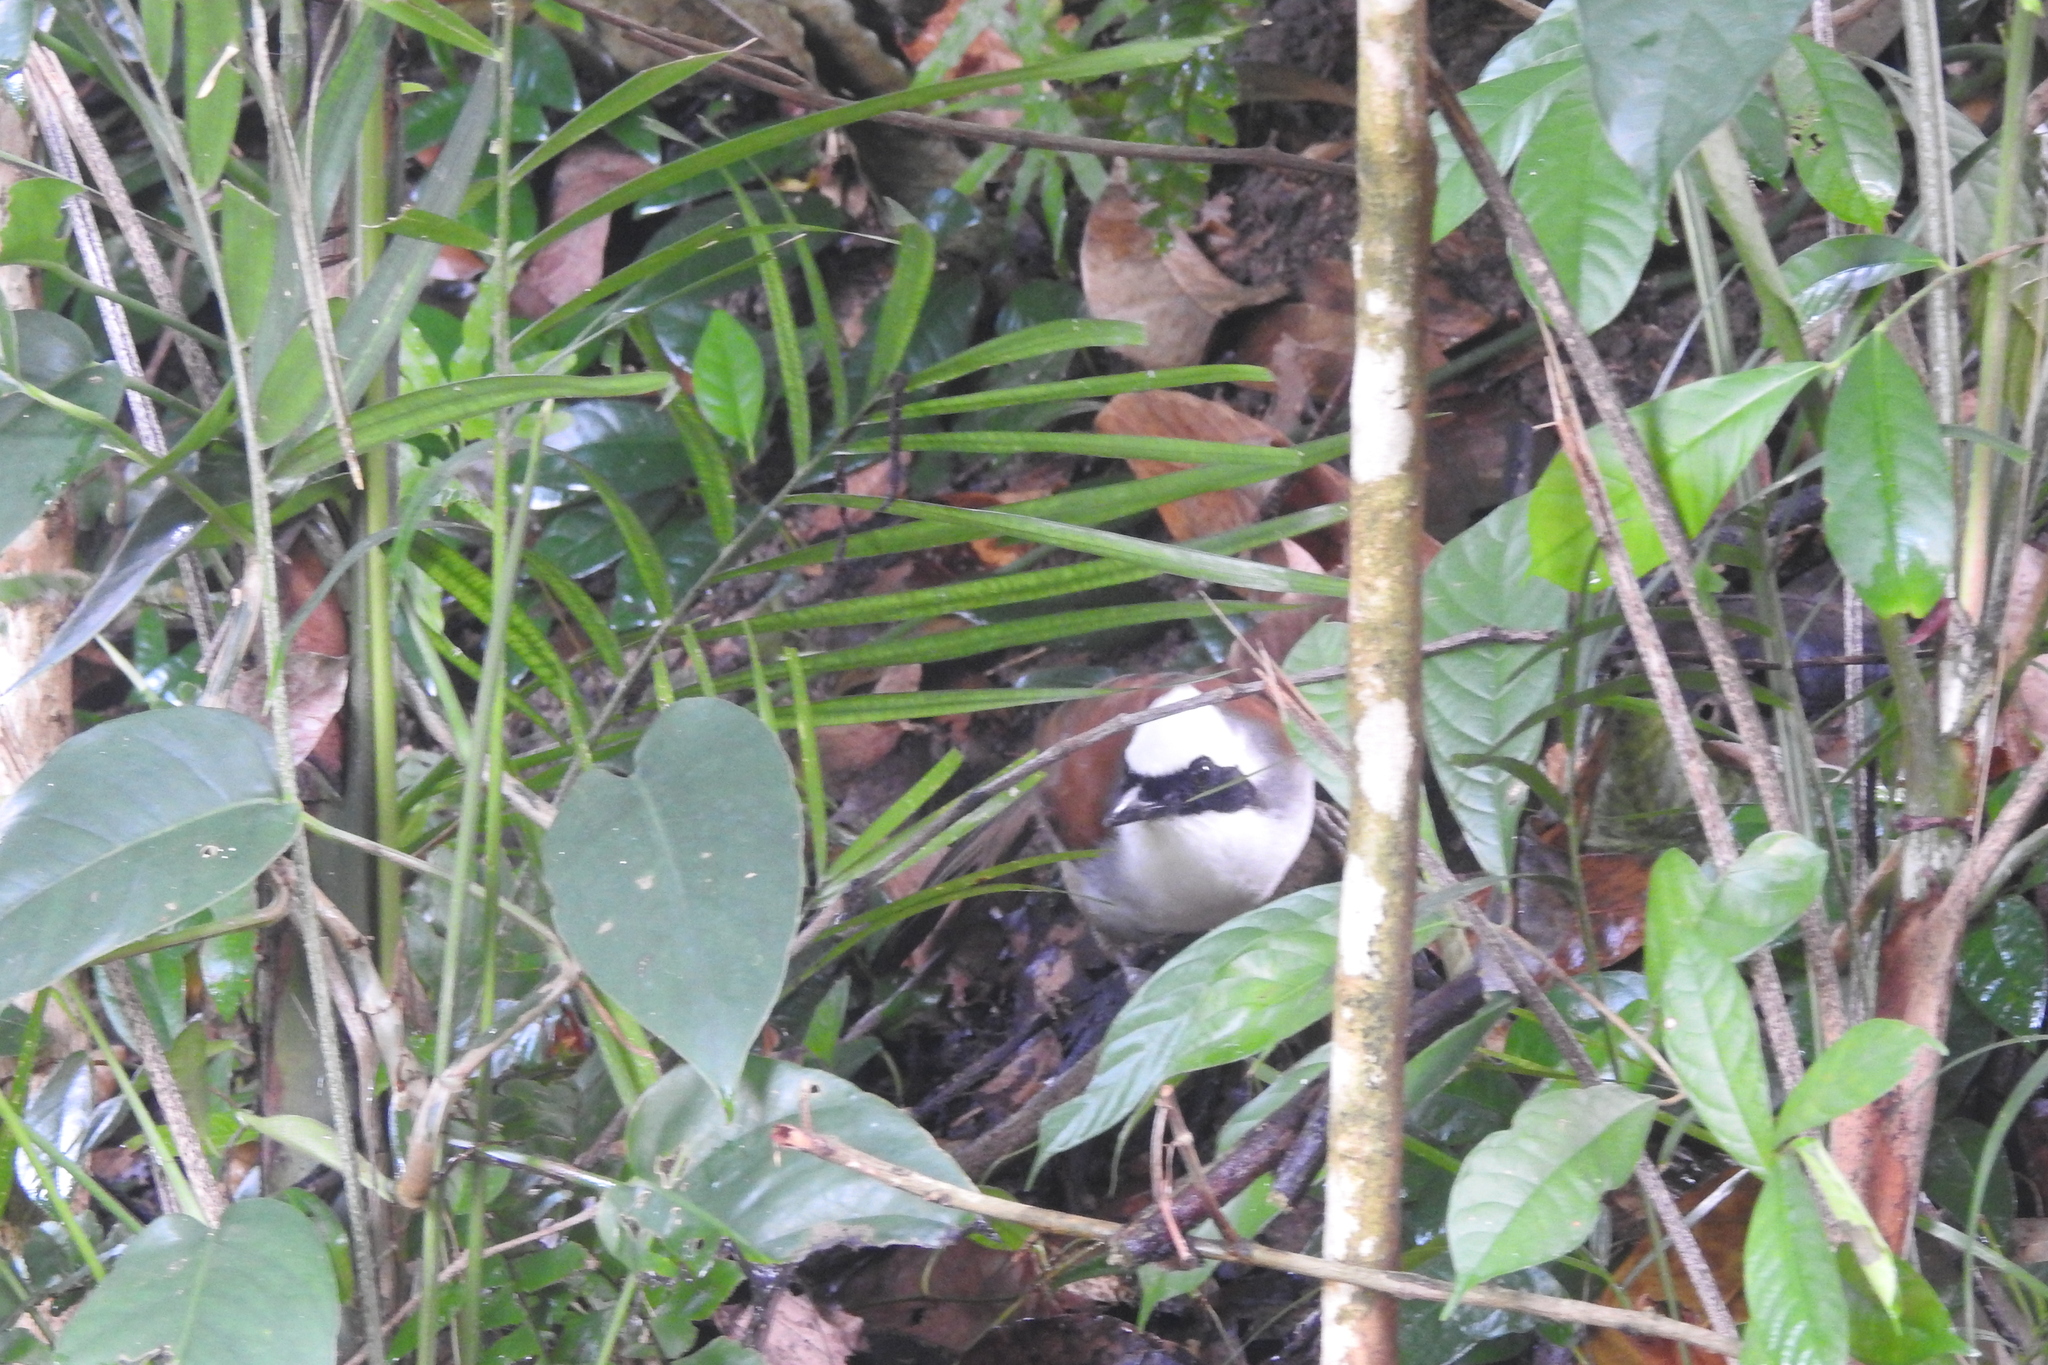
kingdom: Animalia
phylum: Chordata
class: Aves
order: Passeriformes
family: Leiothrichidae
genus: Garrulax
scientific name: Garrulax leucolophus
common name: White-crested laughingthrush
